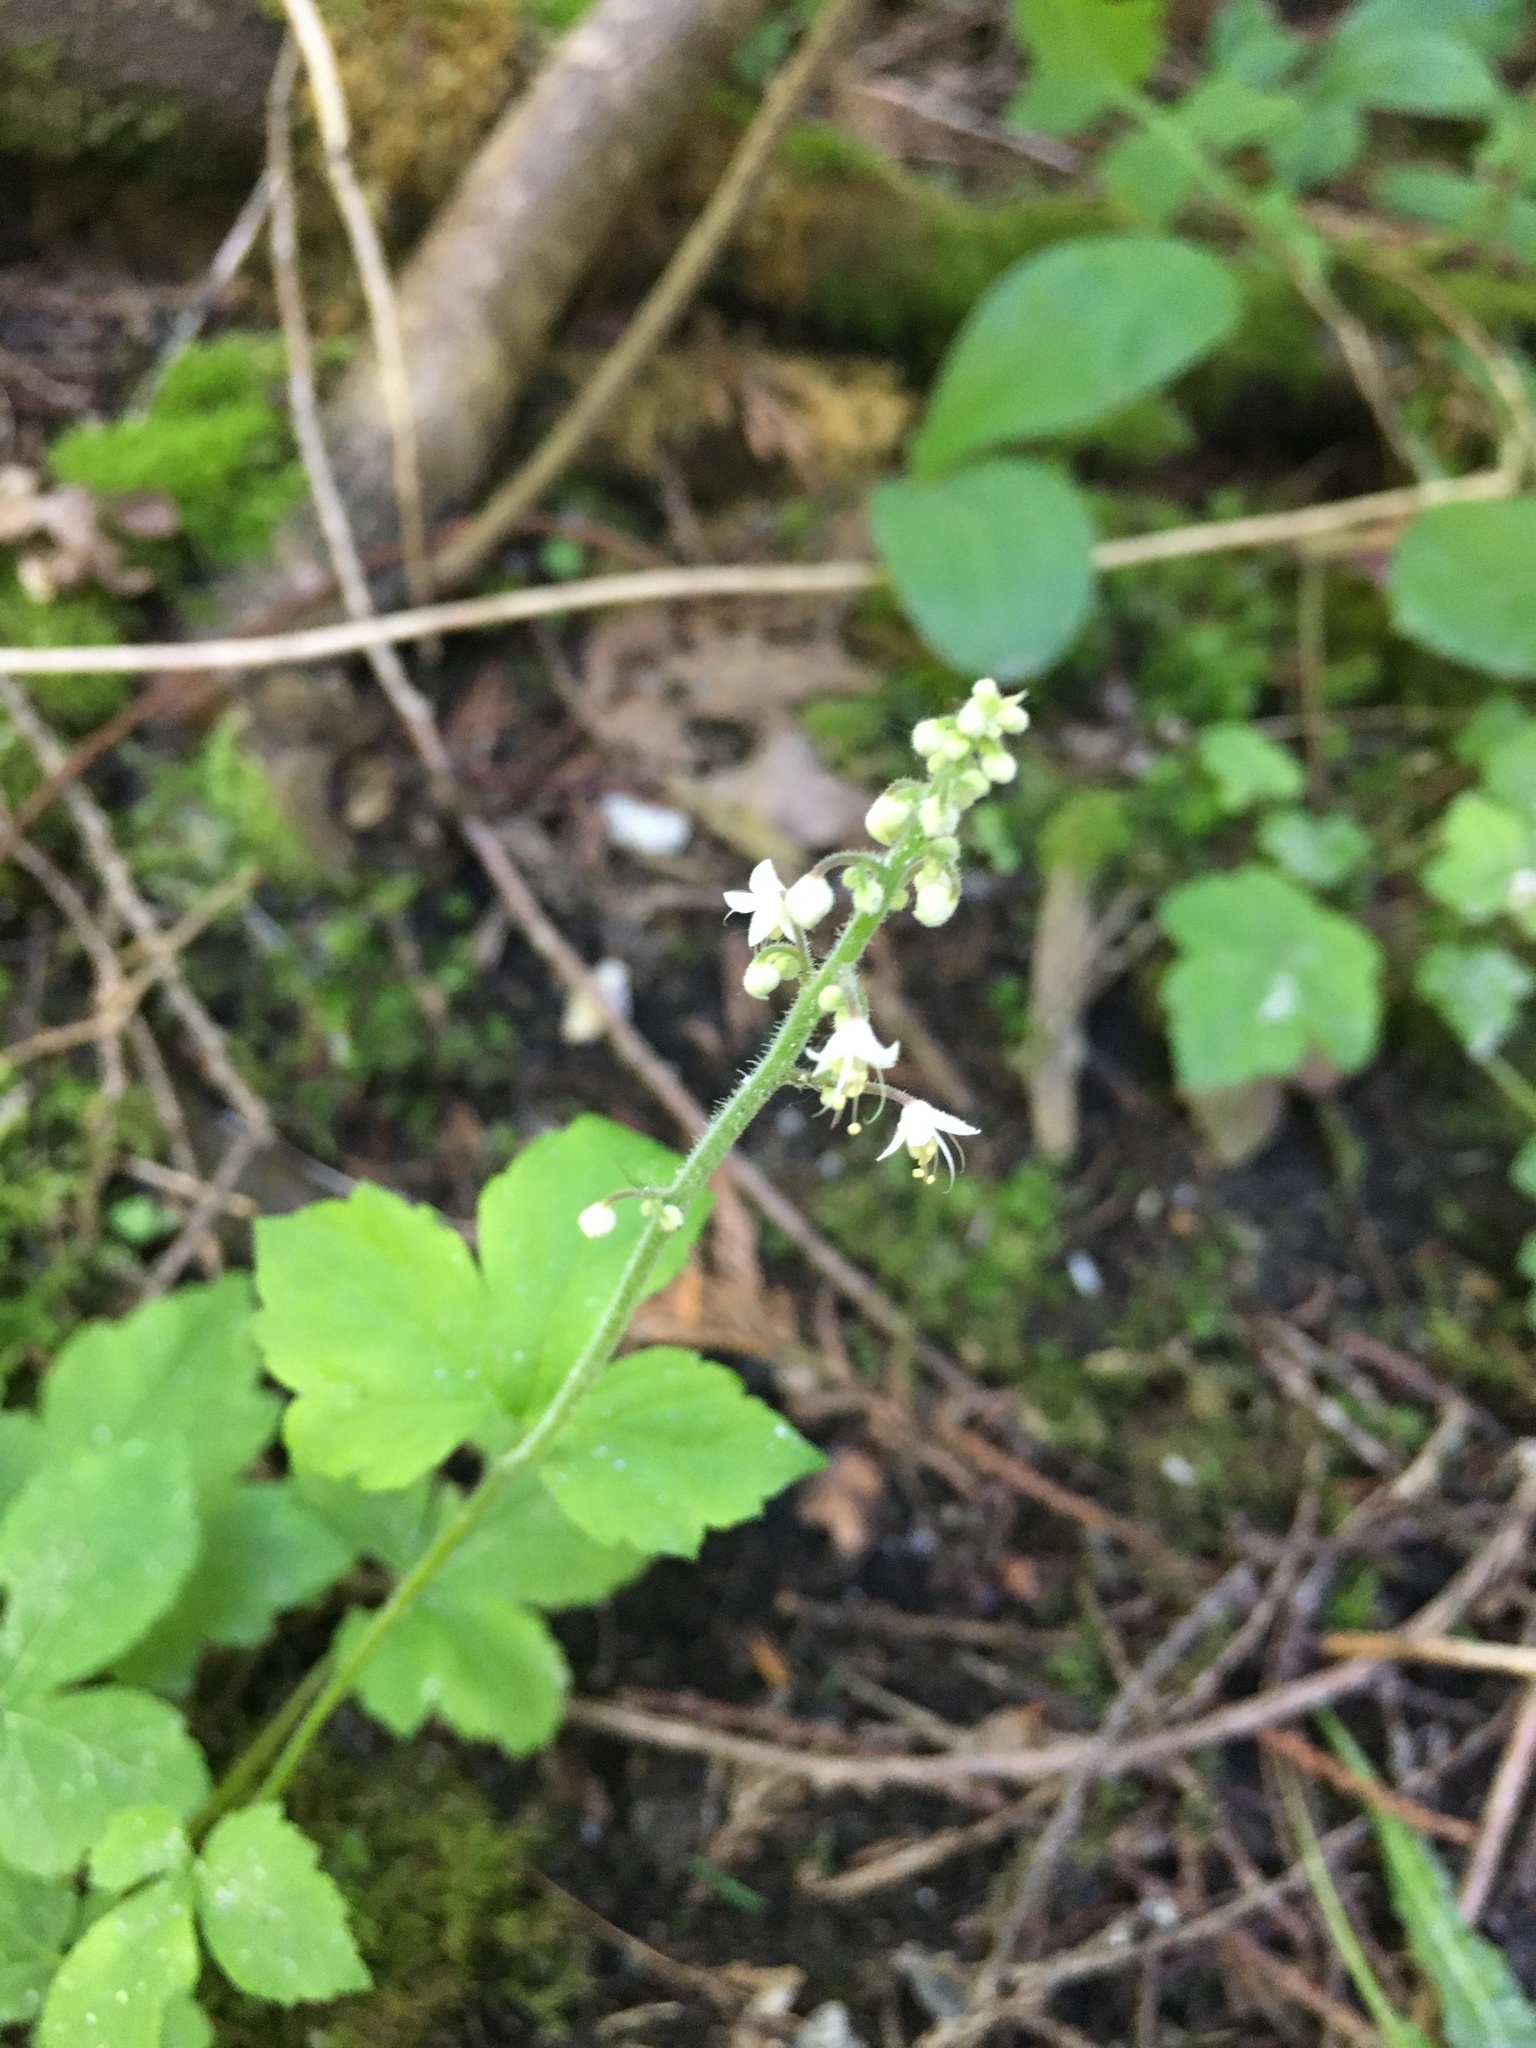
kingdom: Plantae
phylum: Tracheophyta
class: Magnoliopsida
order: Saxifragales
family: Saxifragaceae
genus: Tiarella
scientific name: Tiarella trifoliata
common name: Sugar-scoop
